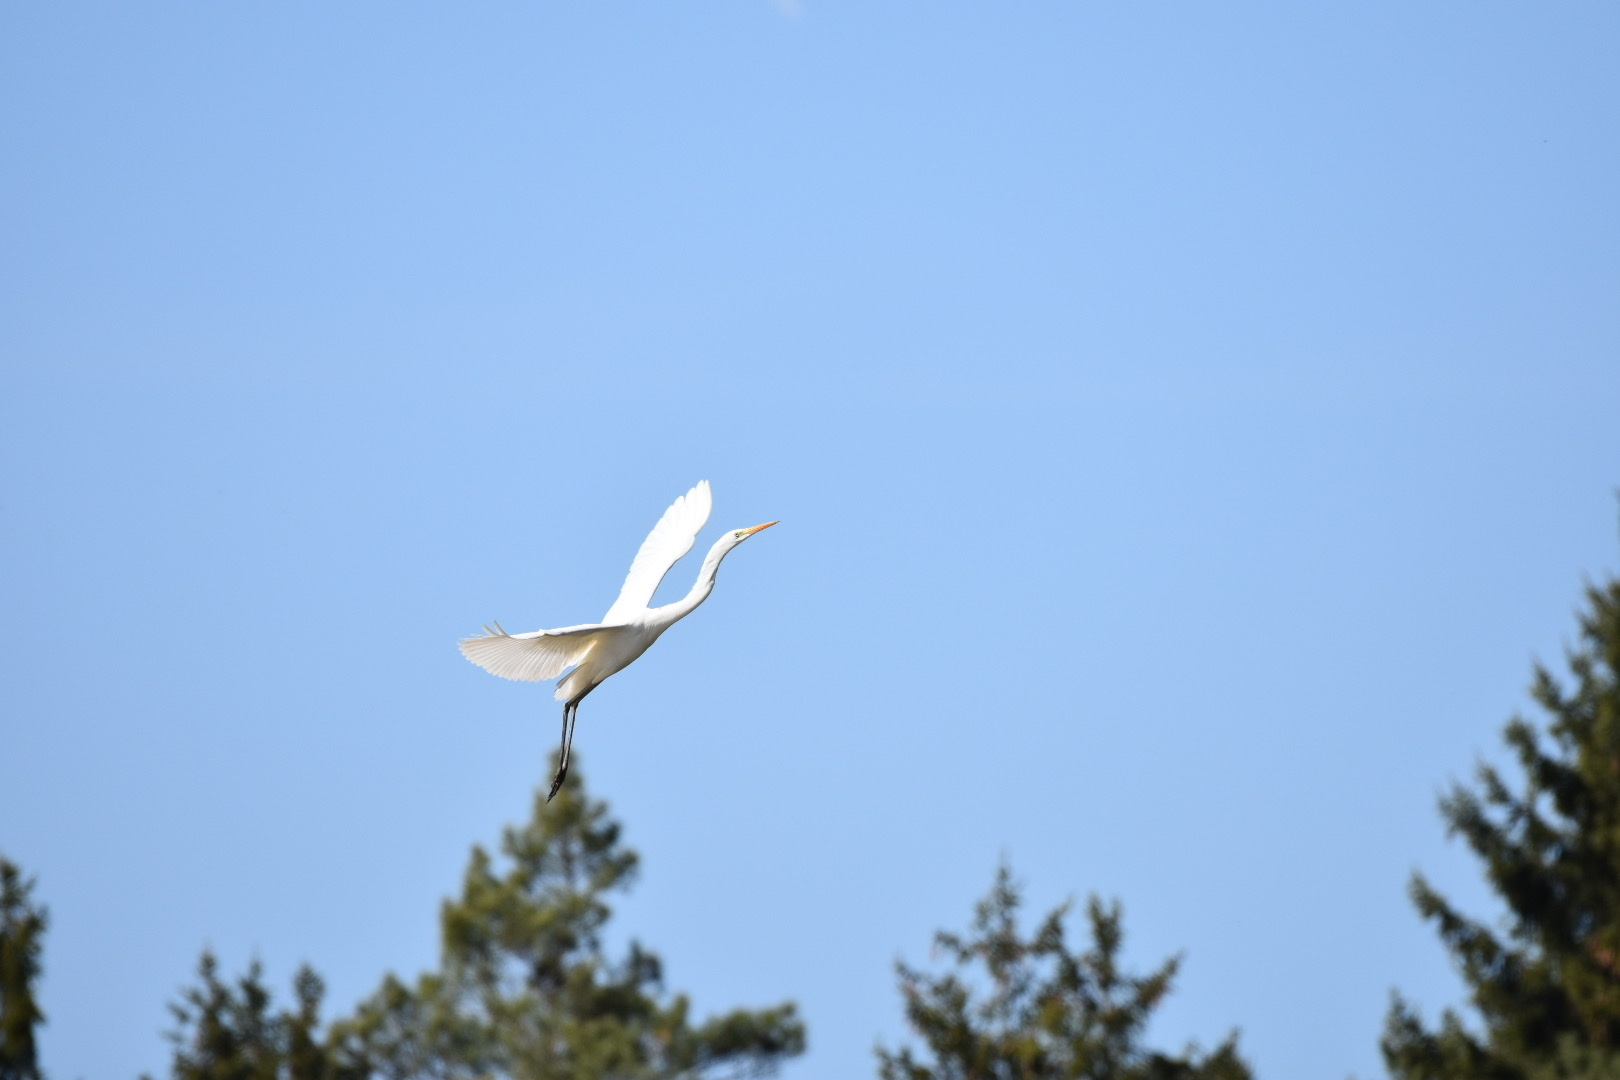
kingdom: Animalia
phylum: Chordata
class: Aves
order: Pelecaniformes
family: Ardeidae
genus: Ardea
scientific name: Ardea alba
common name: Great egret
